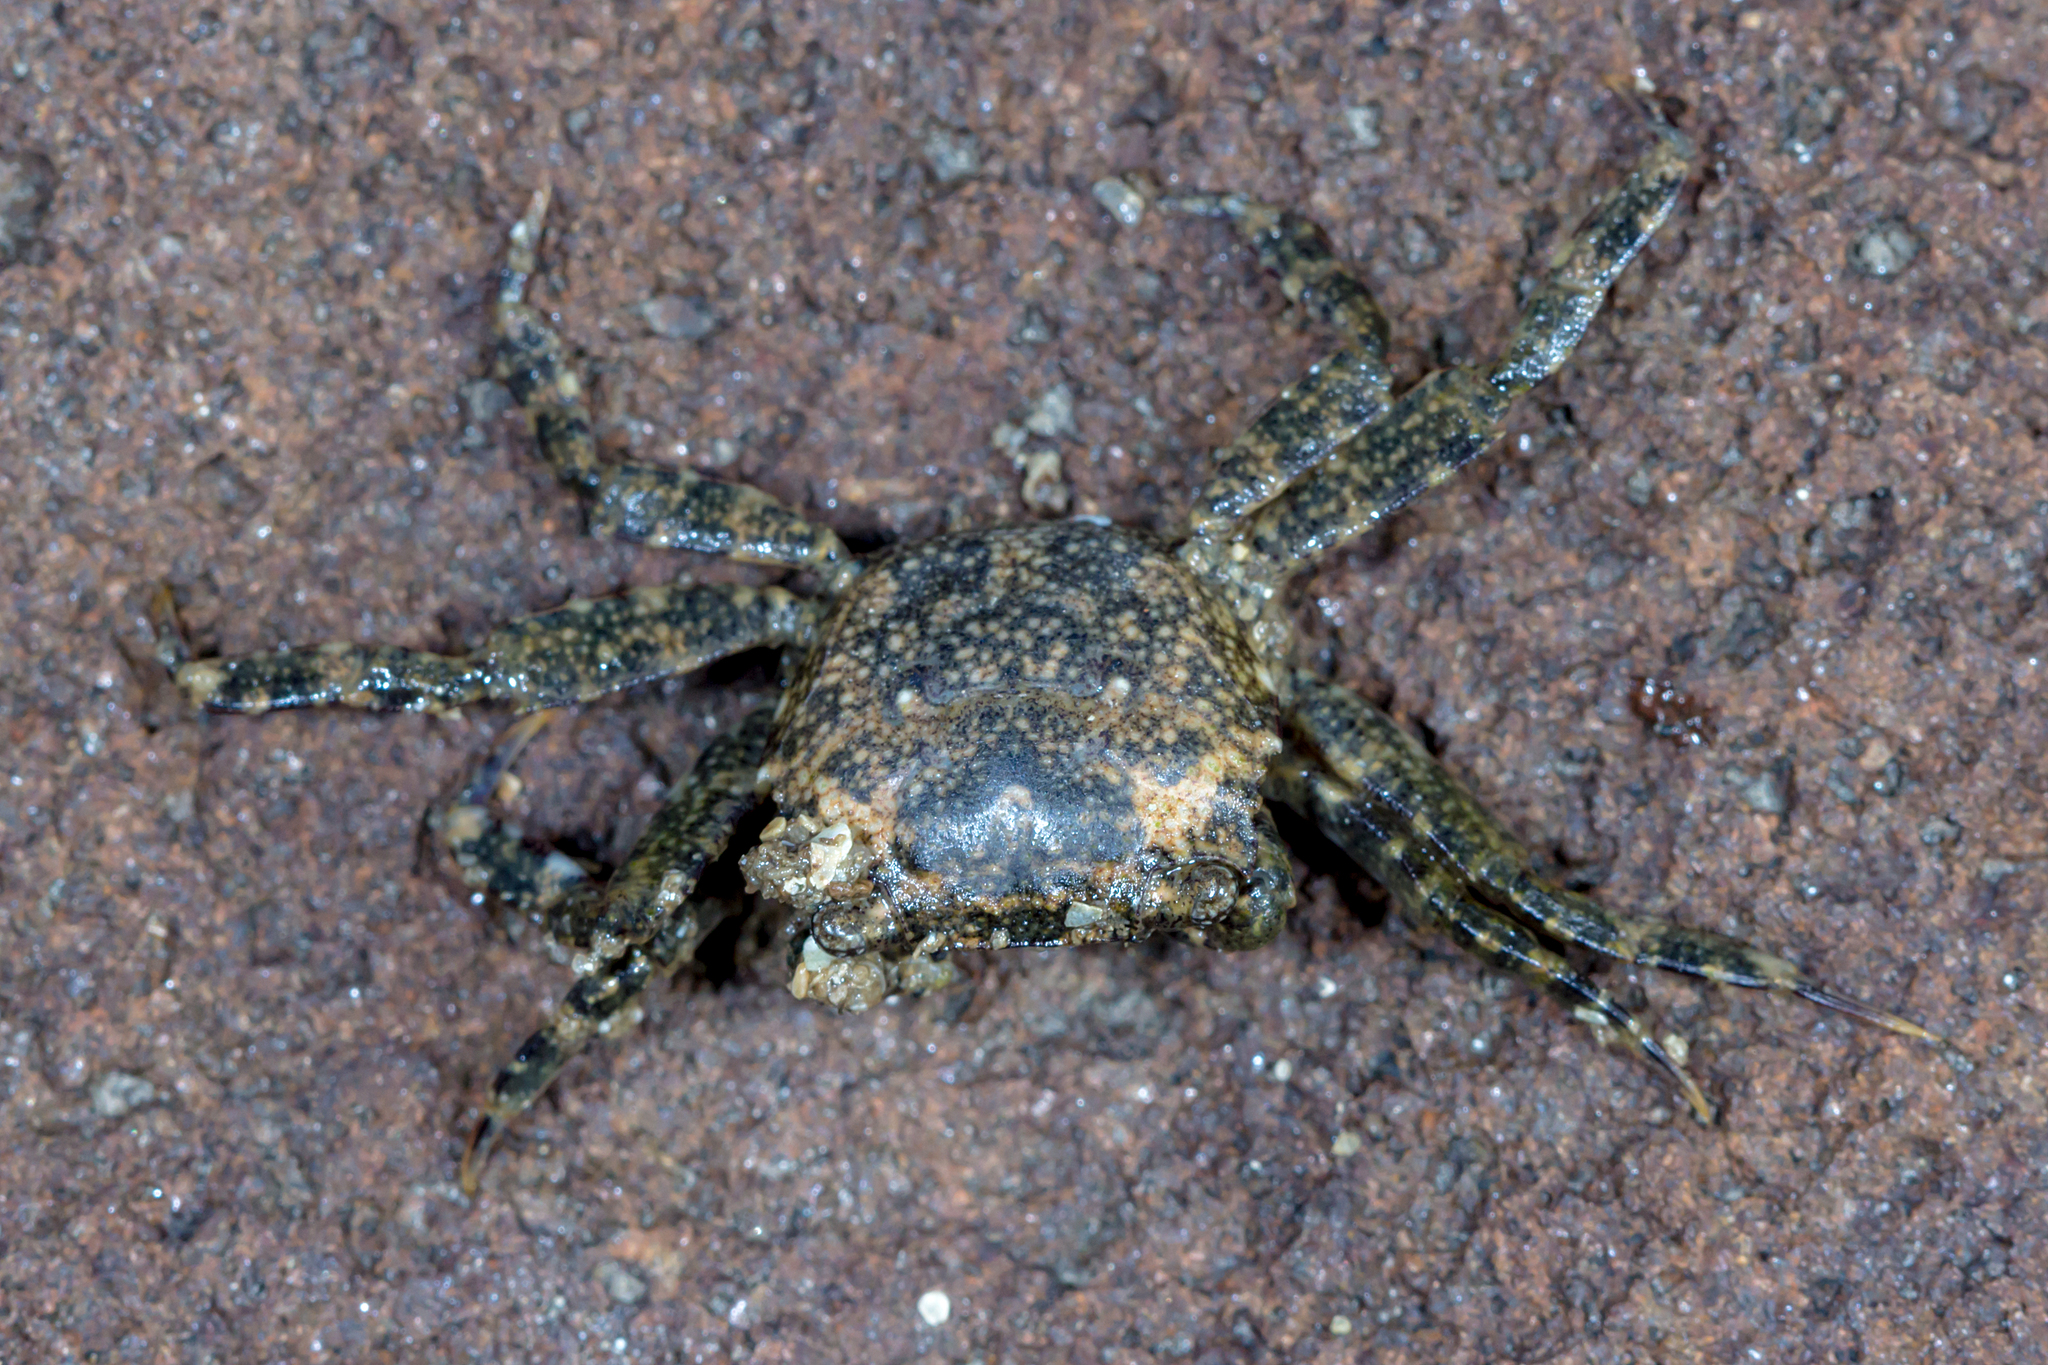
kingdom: Animalia
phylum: Arthropoda
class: Malacostraca
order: Decapoda
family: Varunidae
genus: Brachynotus
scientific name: Brachynotus spinosus
